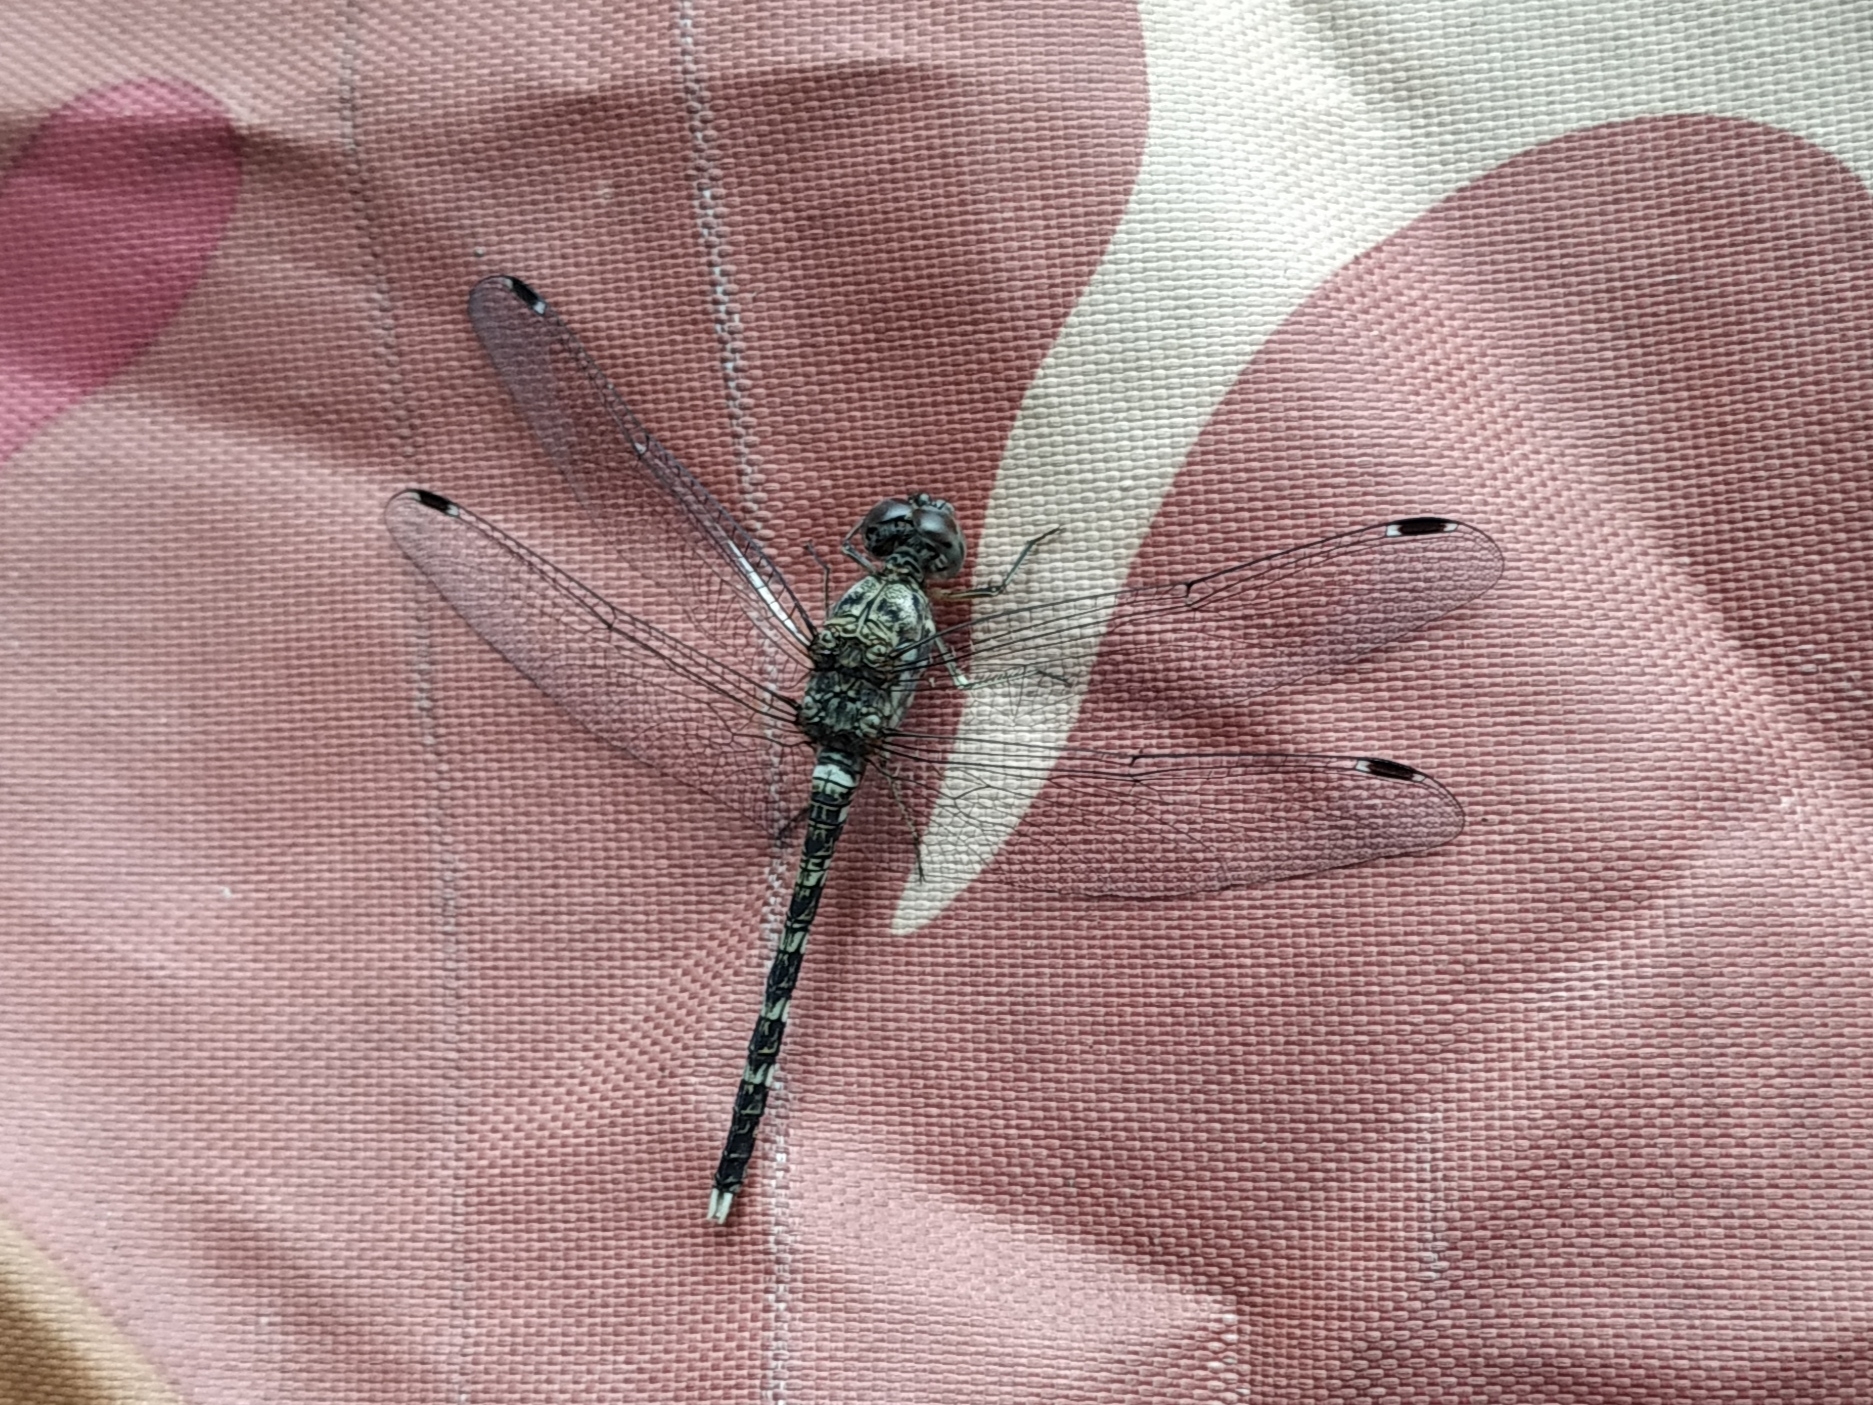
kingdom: Animalia
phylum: Arthropoda
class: Insecta
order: Odonata
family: Libellulidae
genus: Bradinopyga
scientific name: Bradinopyga geminata
